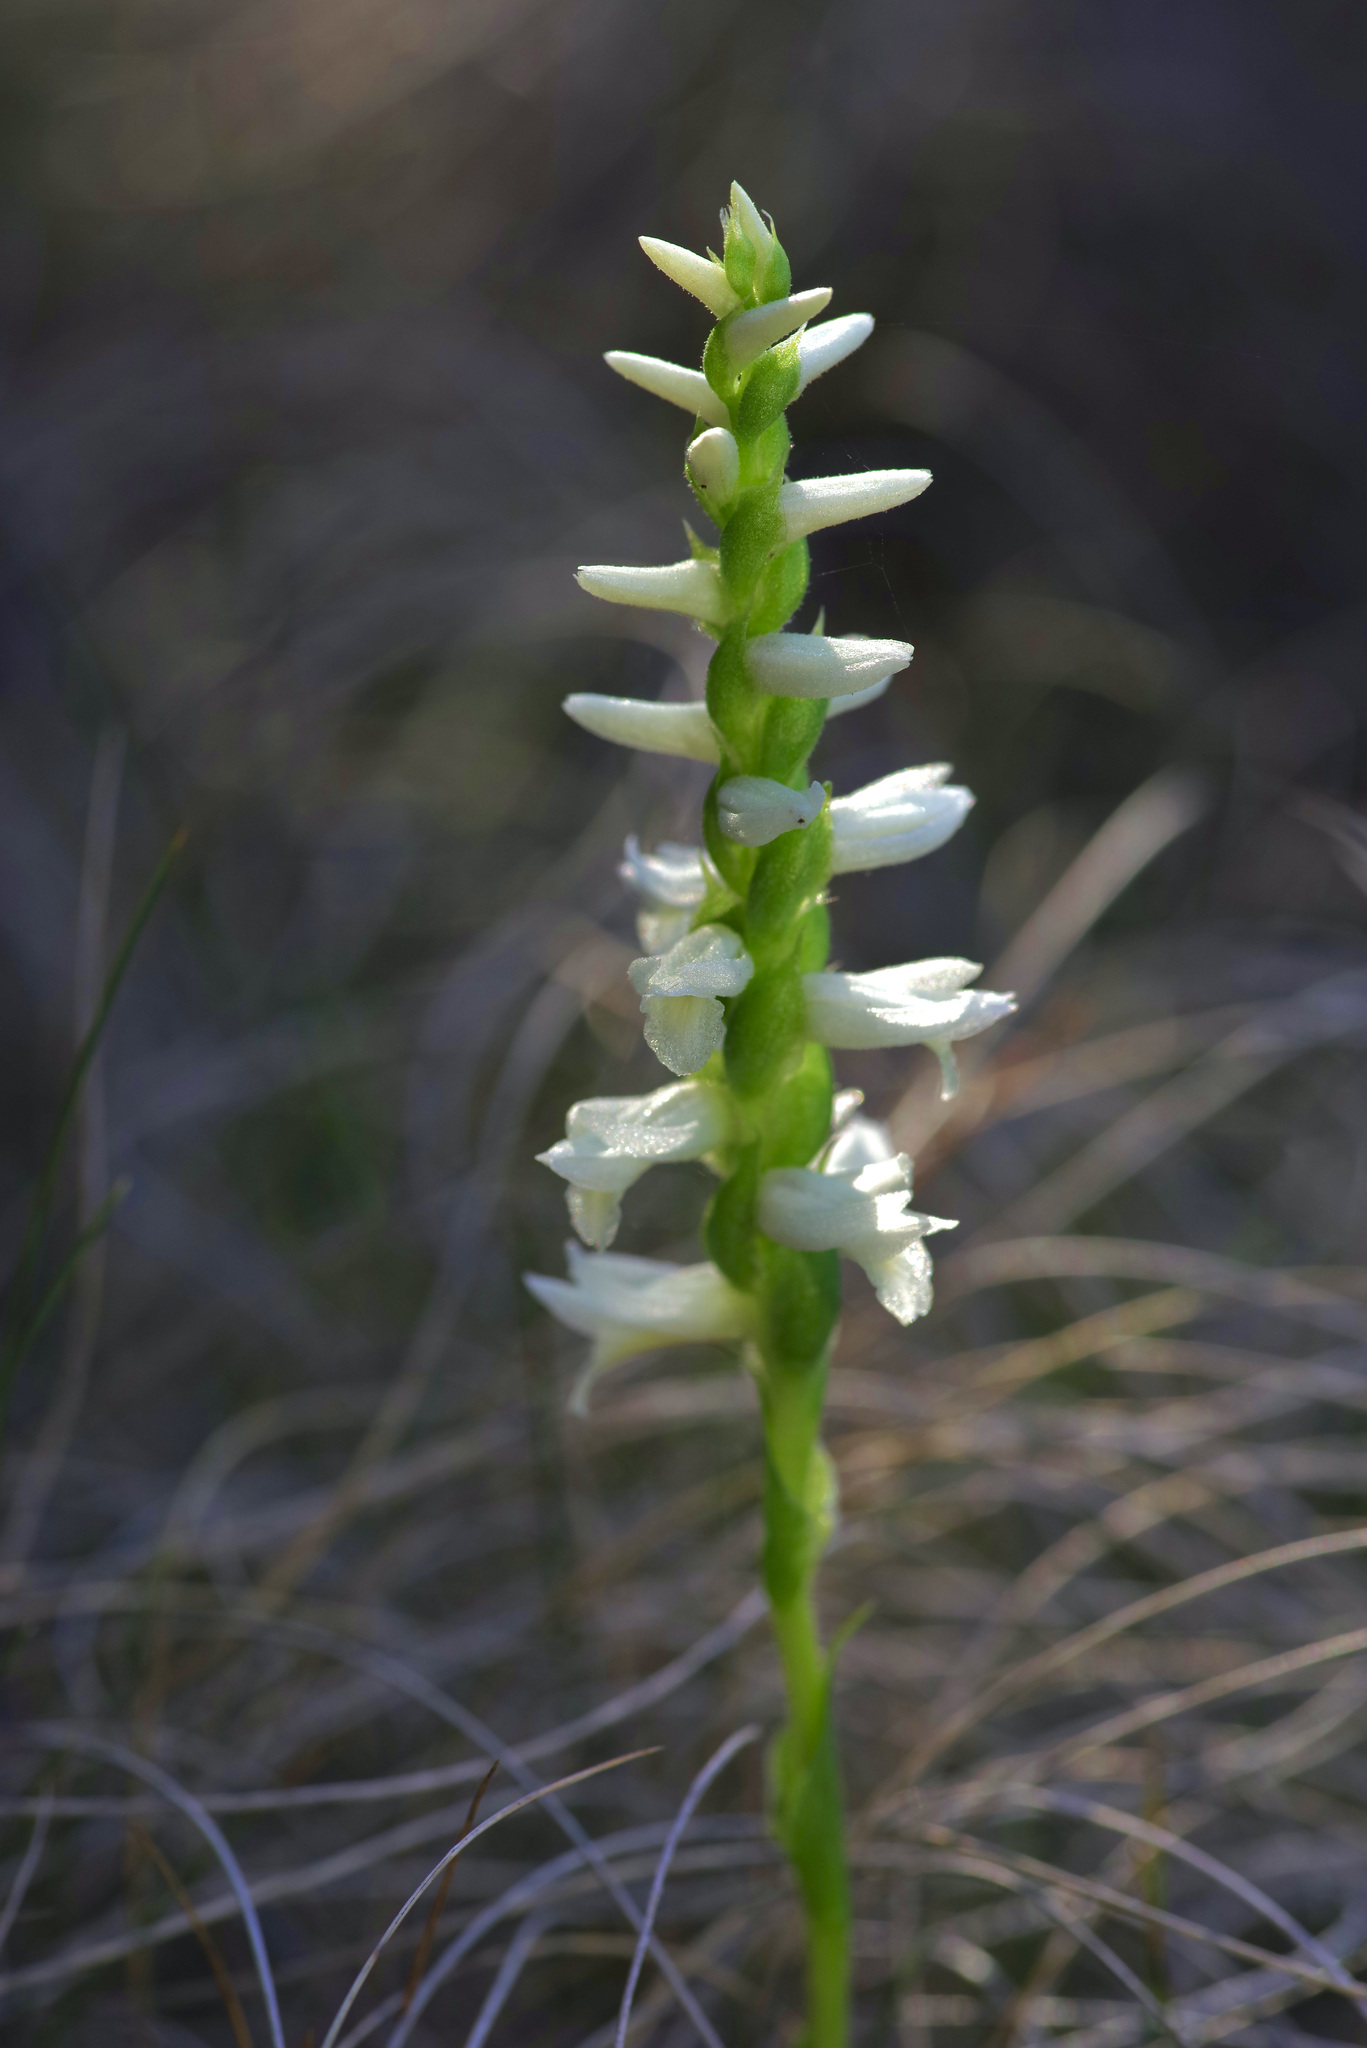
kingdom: Plantae
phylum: Tracheophyta
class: Liliopsida
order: Asparagales
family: Orchidaceae
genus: Spiranthes
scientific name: Spiranthes magnicamporum
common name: Great plains ladies'-tresses
